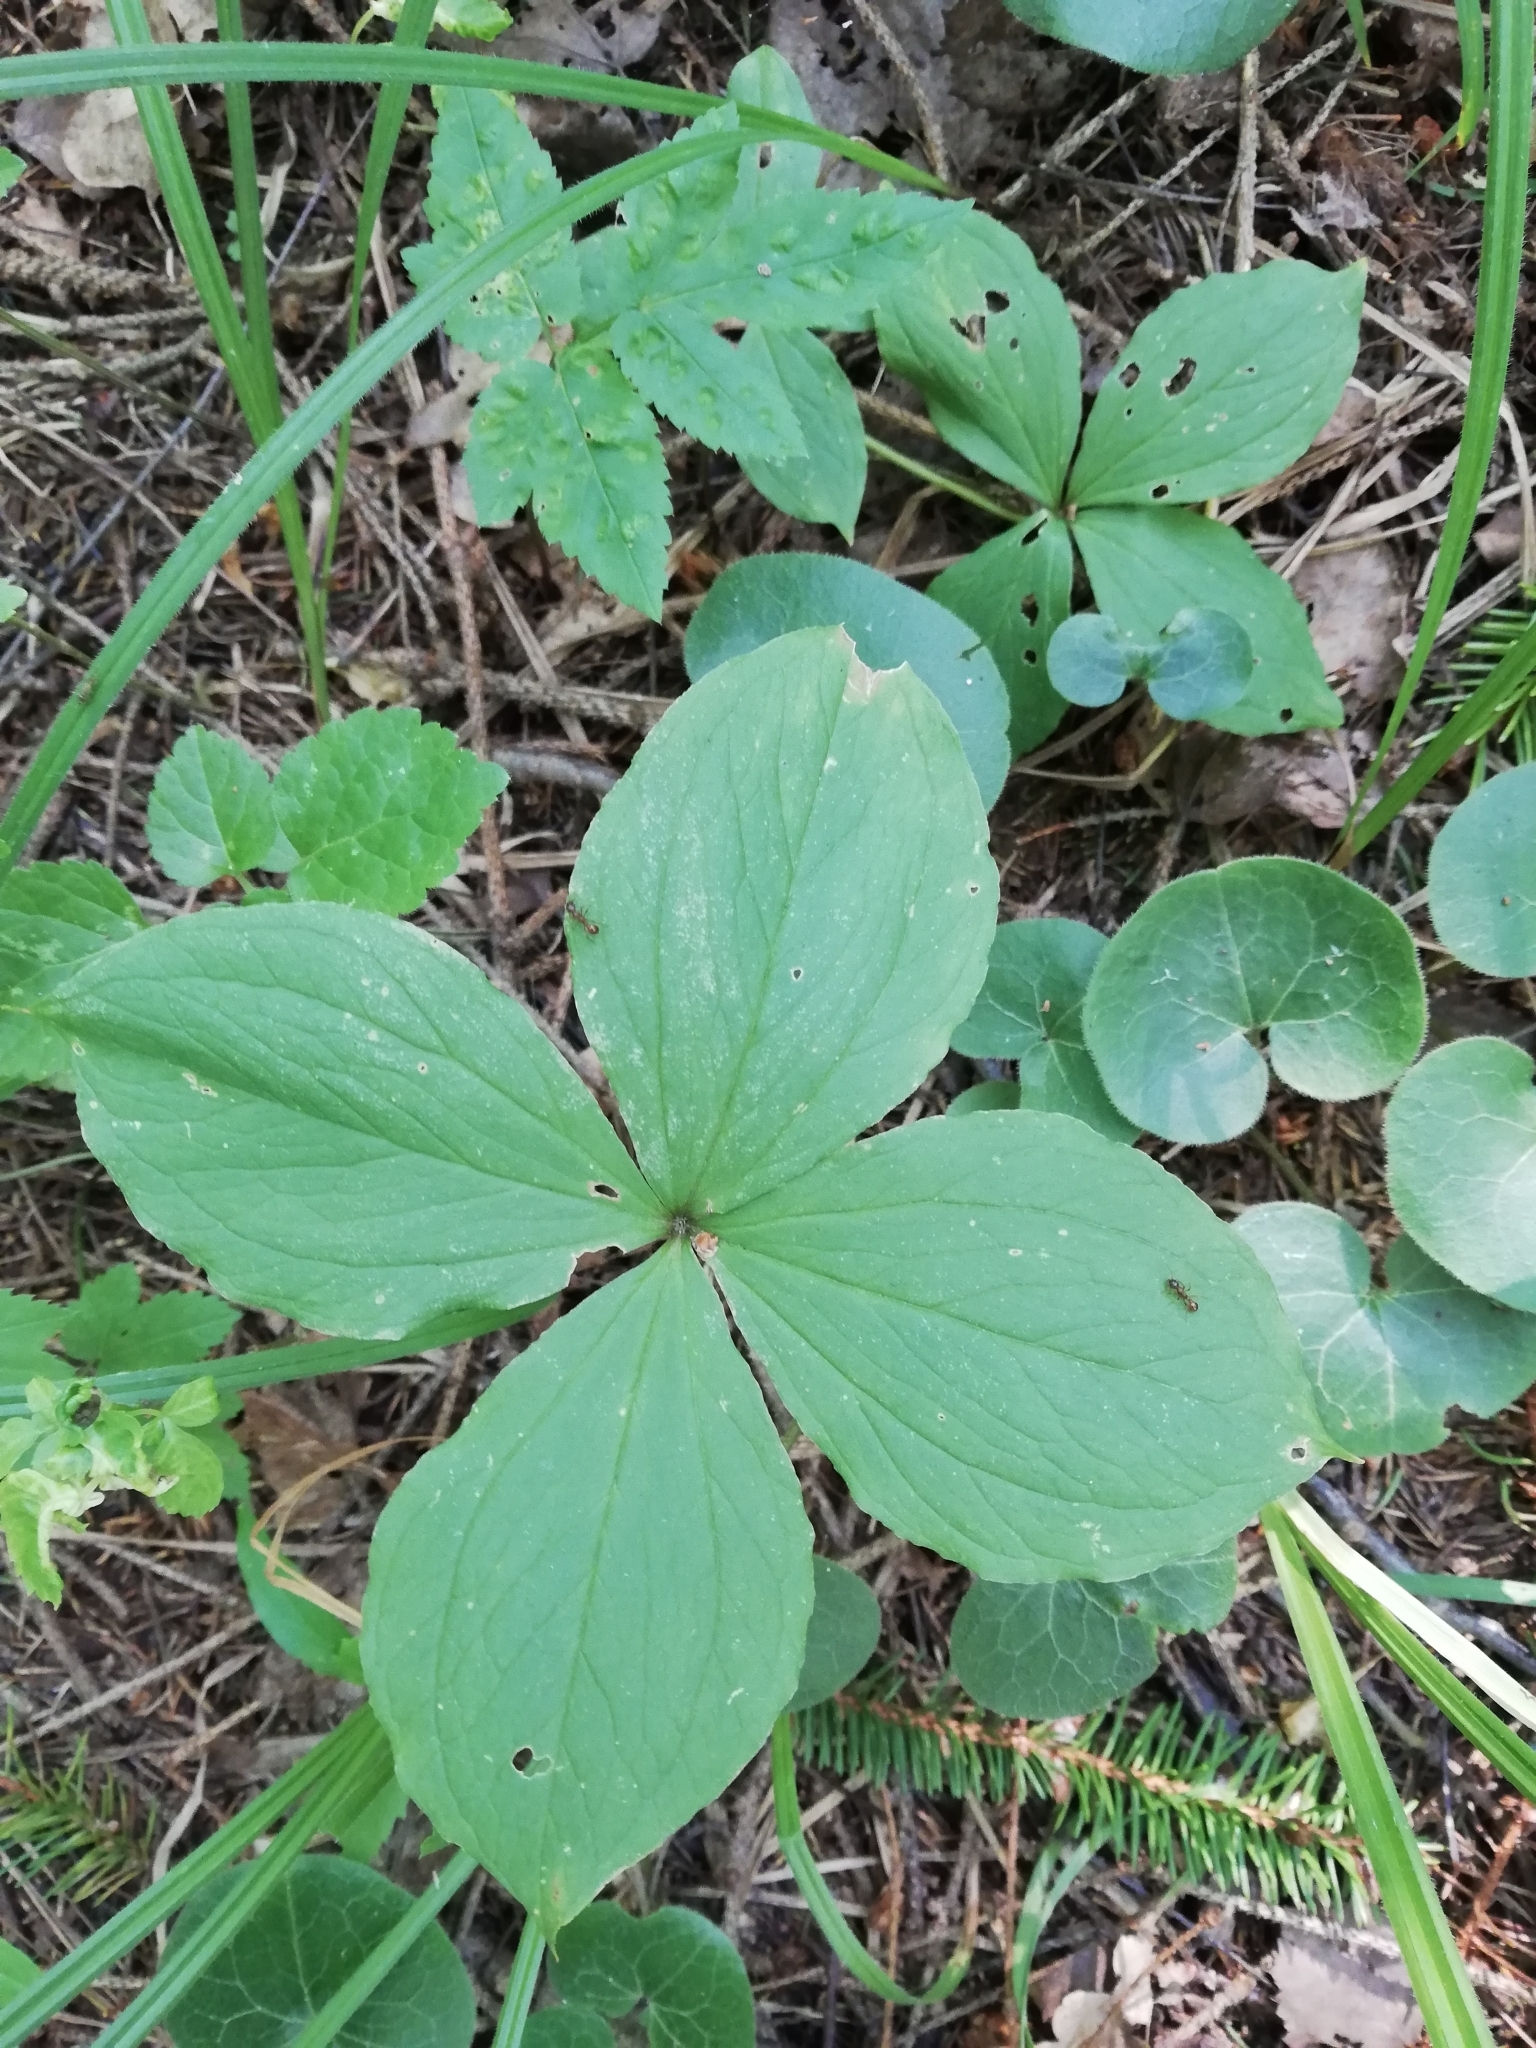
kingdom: Plantae
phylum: Tracheophyta
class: Liliopsida
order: Liliales
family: Melanthiaceae
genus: Paris
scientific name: Paris quadrifolia
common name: Herb-paris
